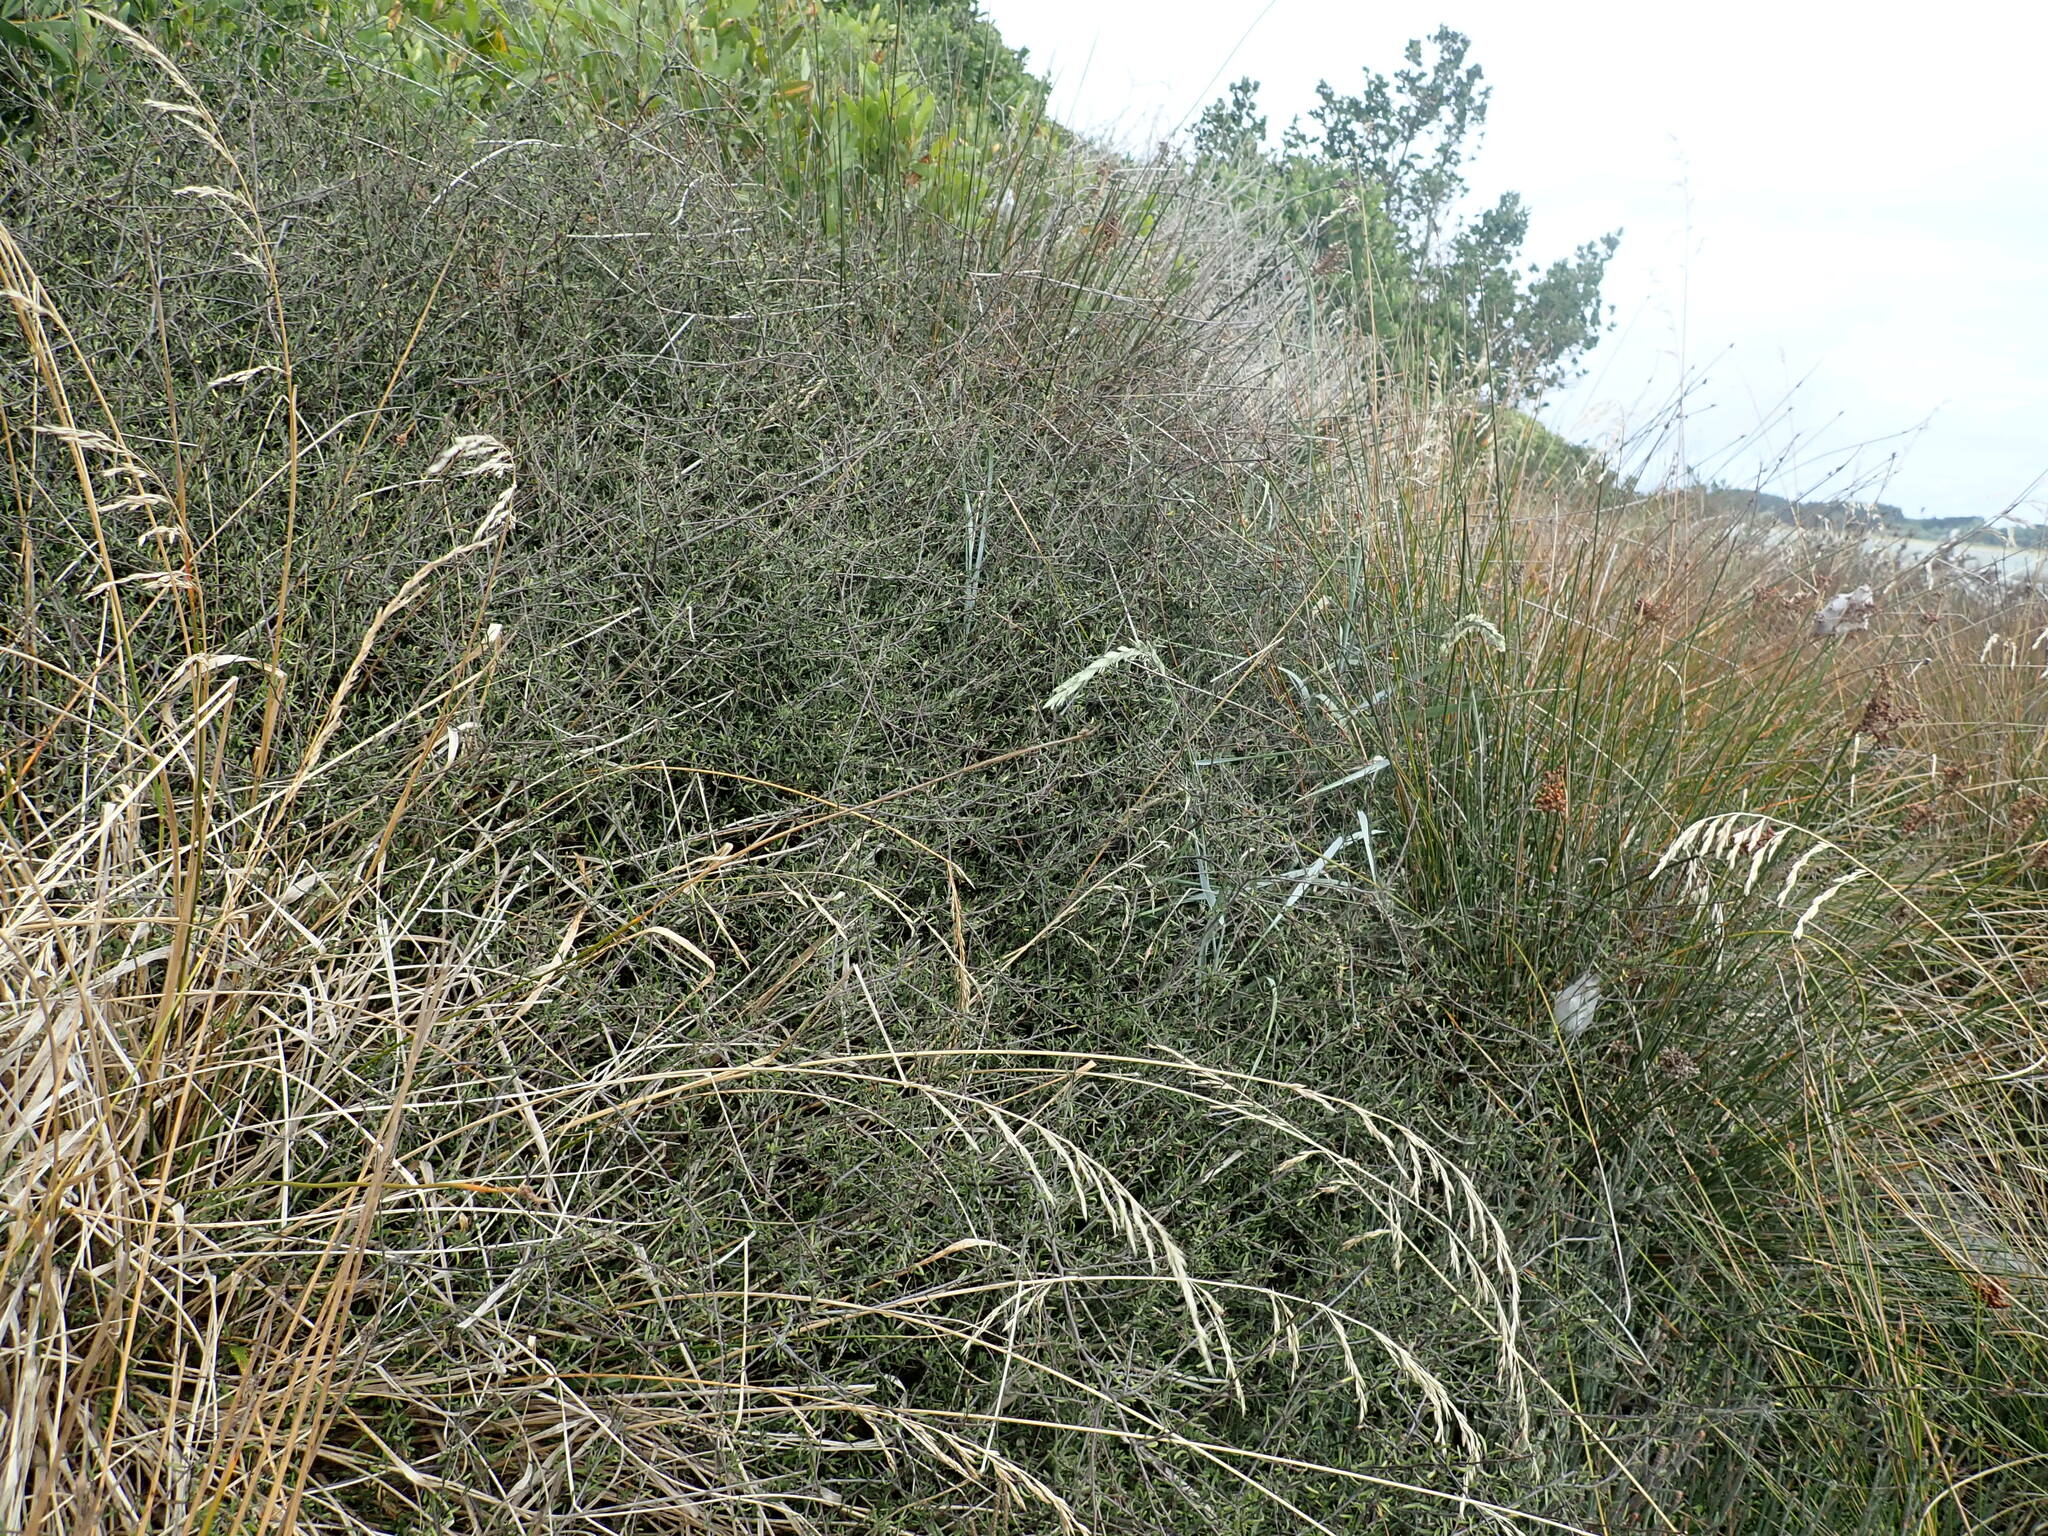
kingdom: Plantae
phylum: Tracheophyta
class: Magnoliopsida
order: Malvales
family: Malvaceae
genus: Plagianthus
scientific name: Plagianthus divaricatus
